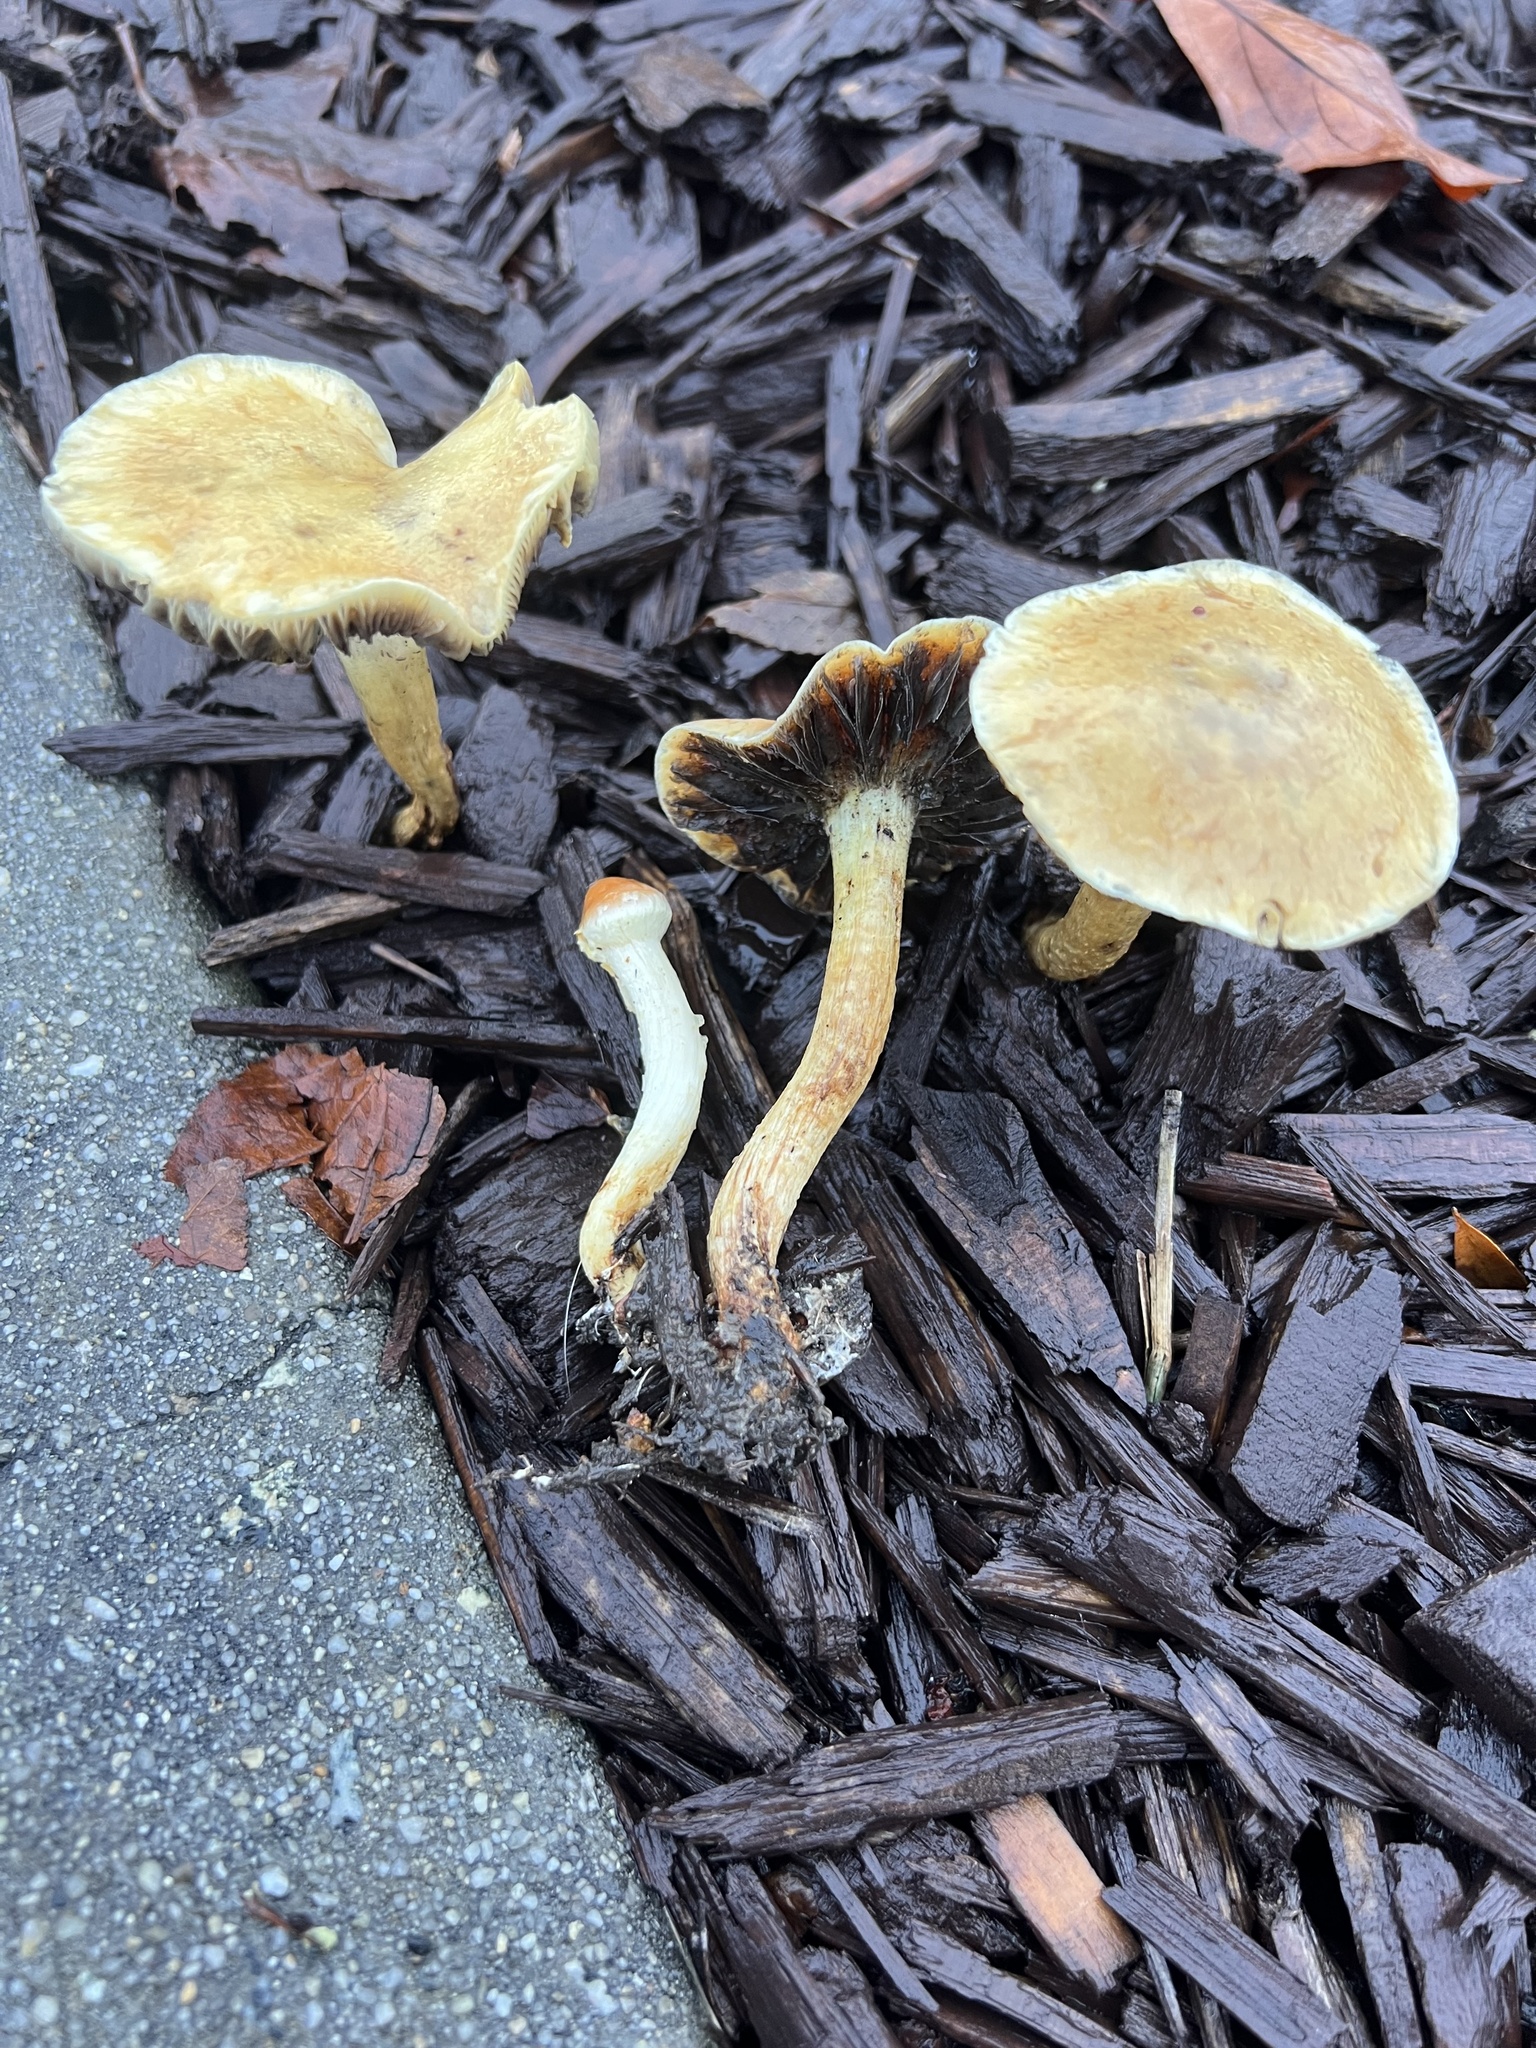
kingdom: Fungi
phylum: Basidiomycota
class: Agaricomycetes
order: Agaricales
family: Strophariaceae
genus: Leratiomyces
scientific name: Leratiomyces percevalii
